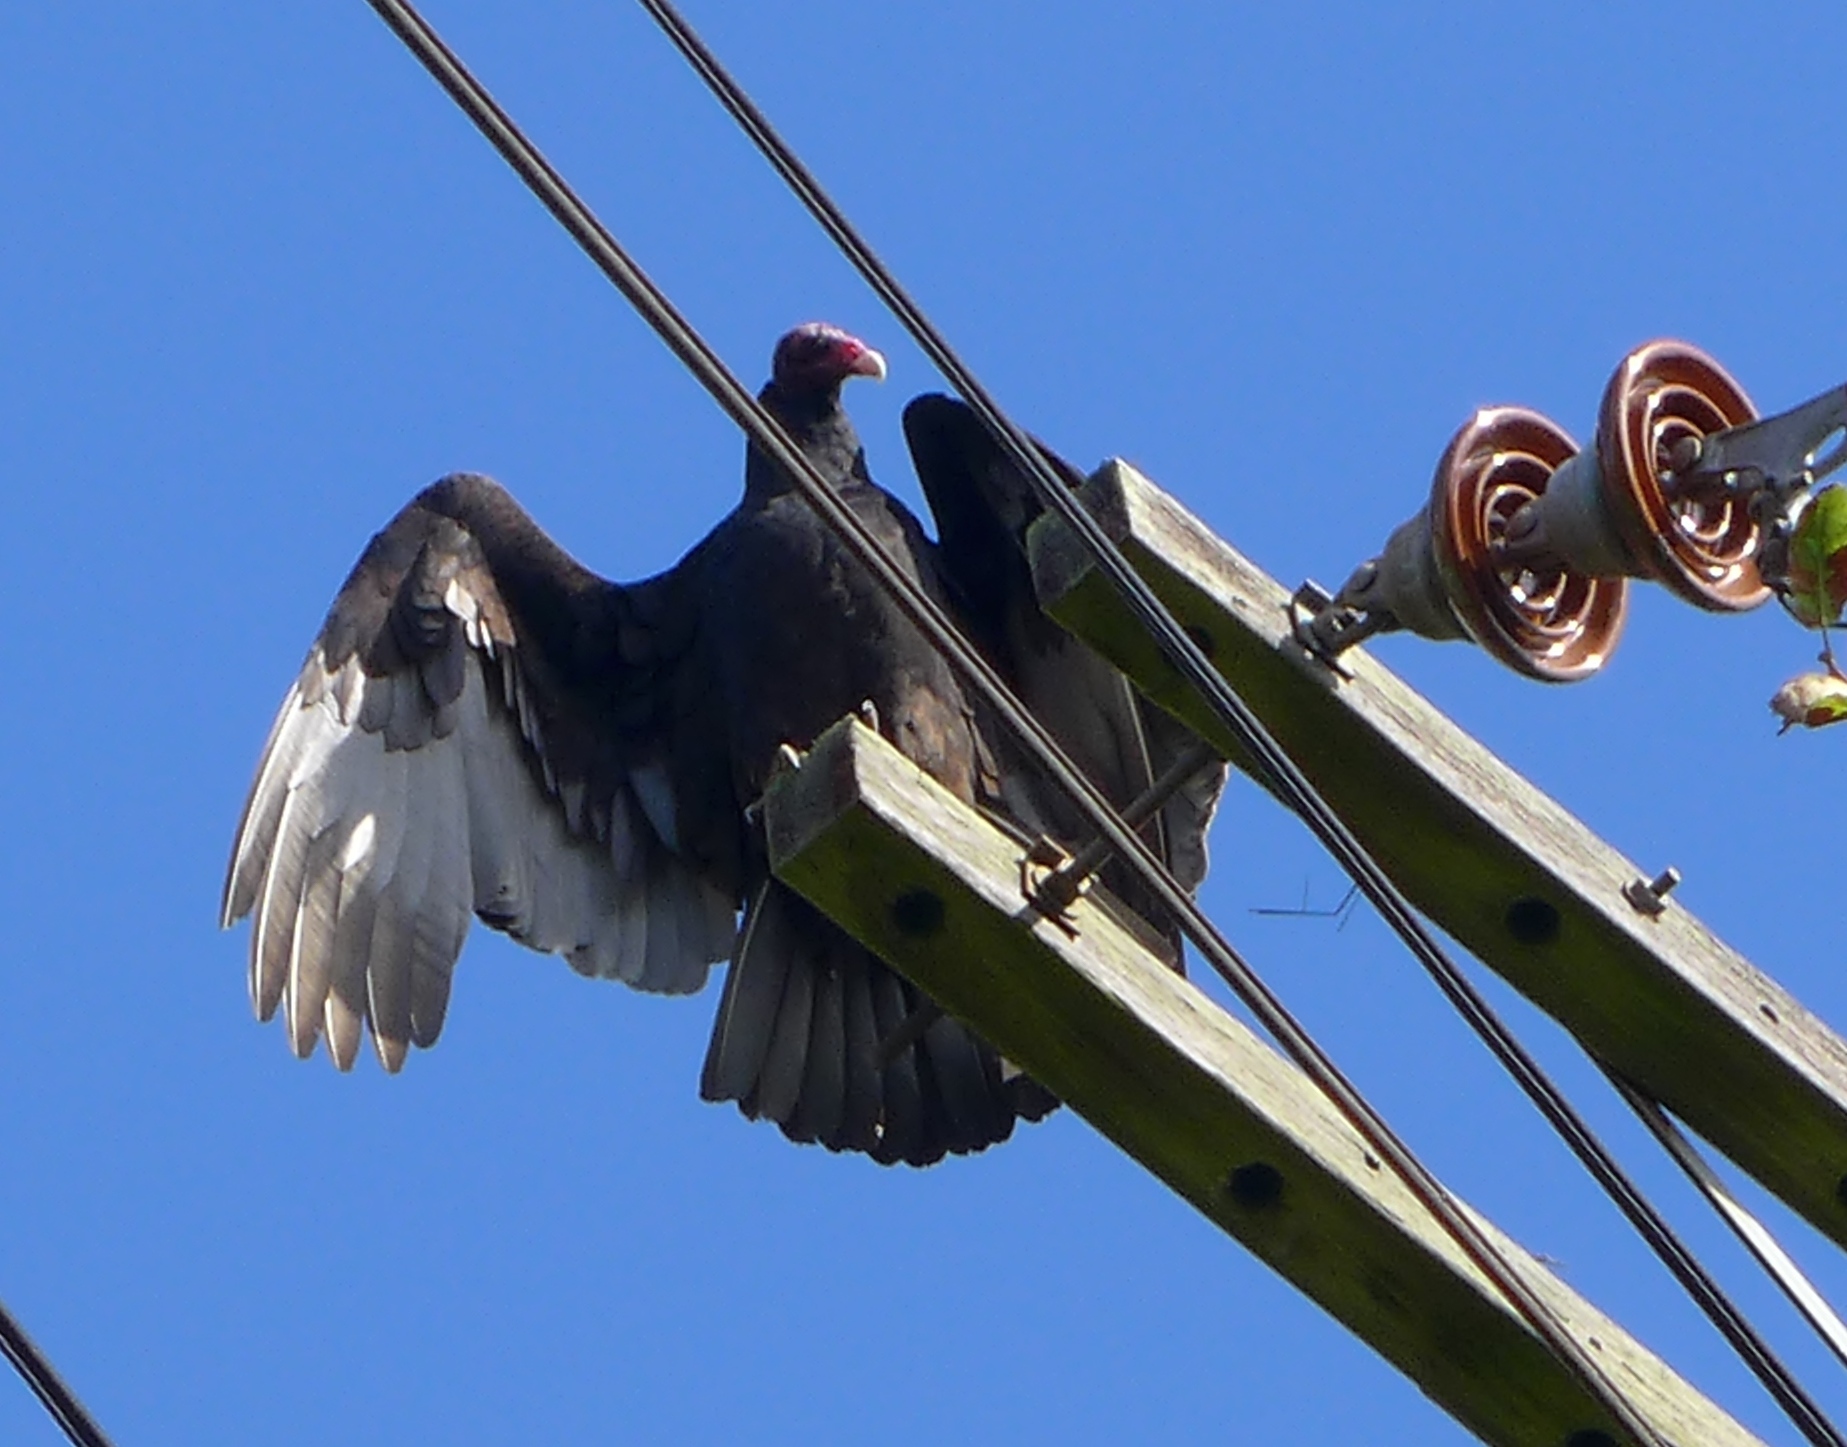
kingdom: Animalia
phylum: Chordata
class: Aves
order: Accipitriformes
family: Cathartidae
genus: Cathartes
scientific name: Cathartes aura
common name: Turkey vulture
